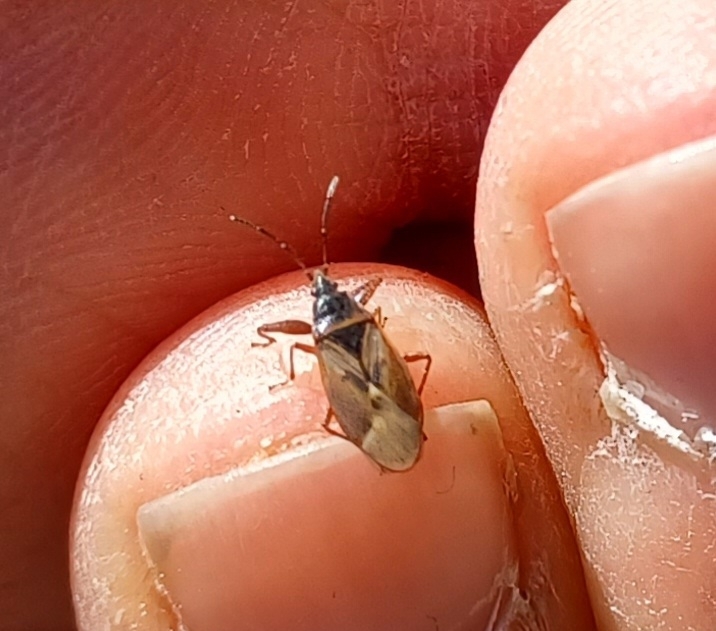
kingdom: Animalia
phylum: Arthropoda
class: Insecta
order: Hemiptera
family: Rhyparochromidae
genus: Gastrodes
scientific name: Gastrodes abietum
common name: Spruce cone bug
